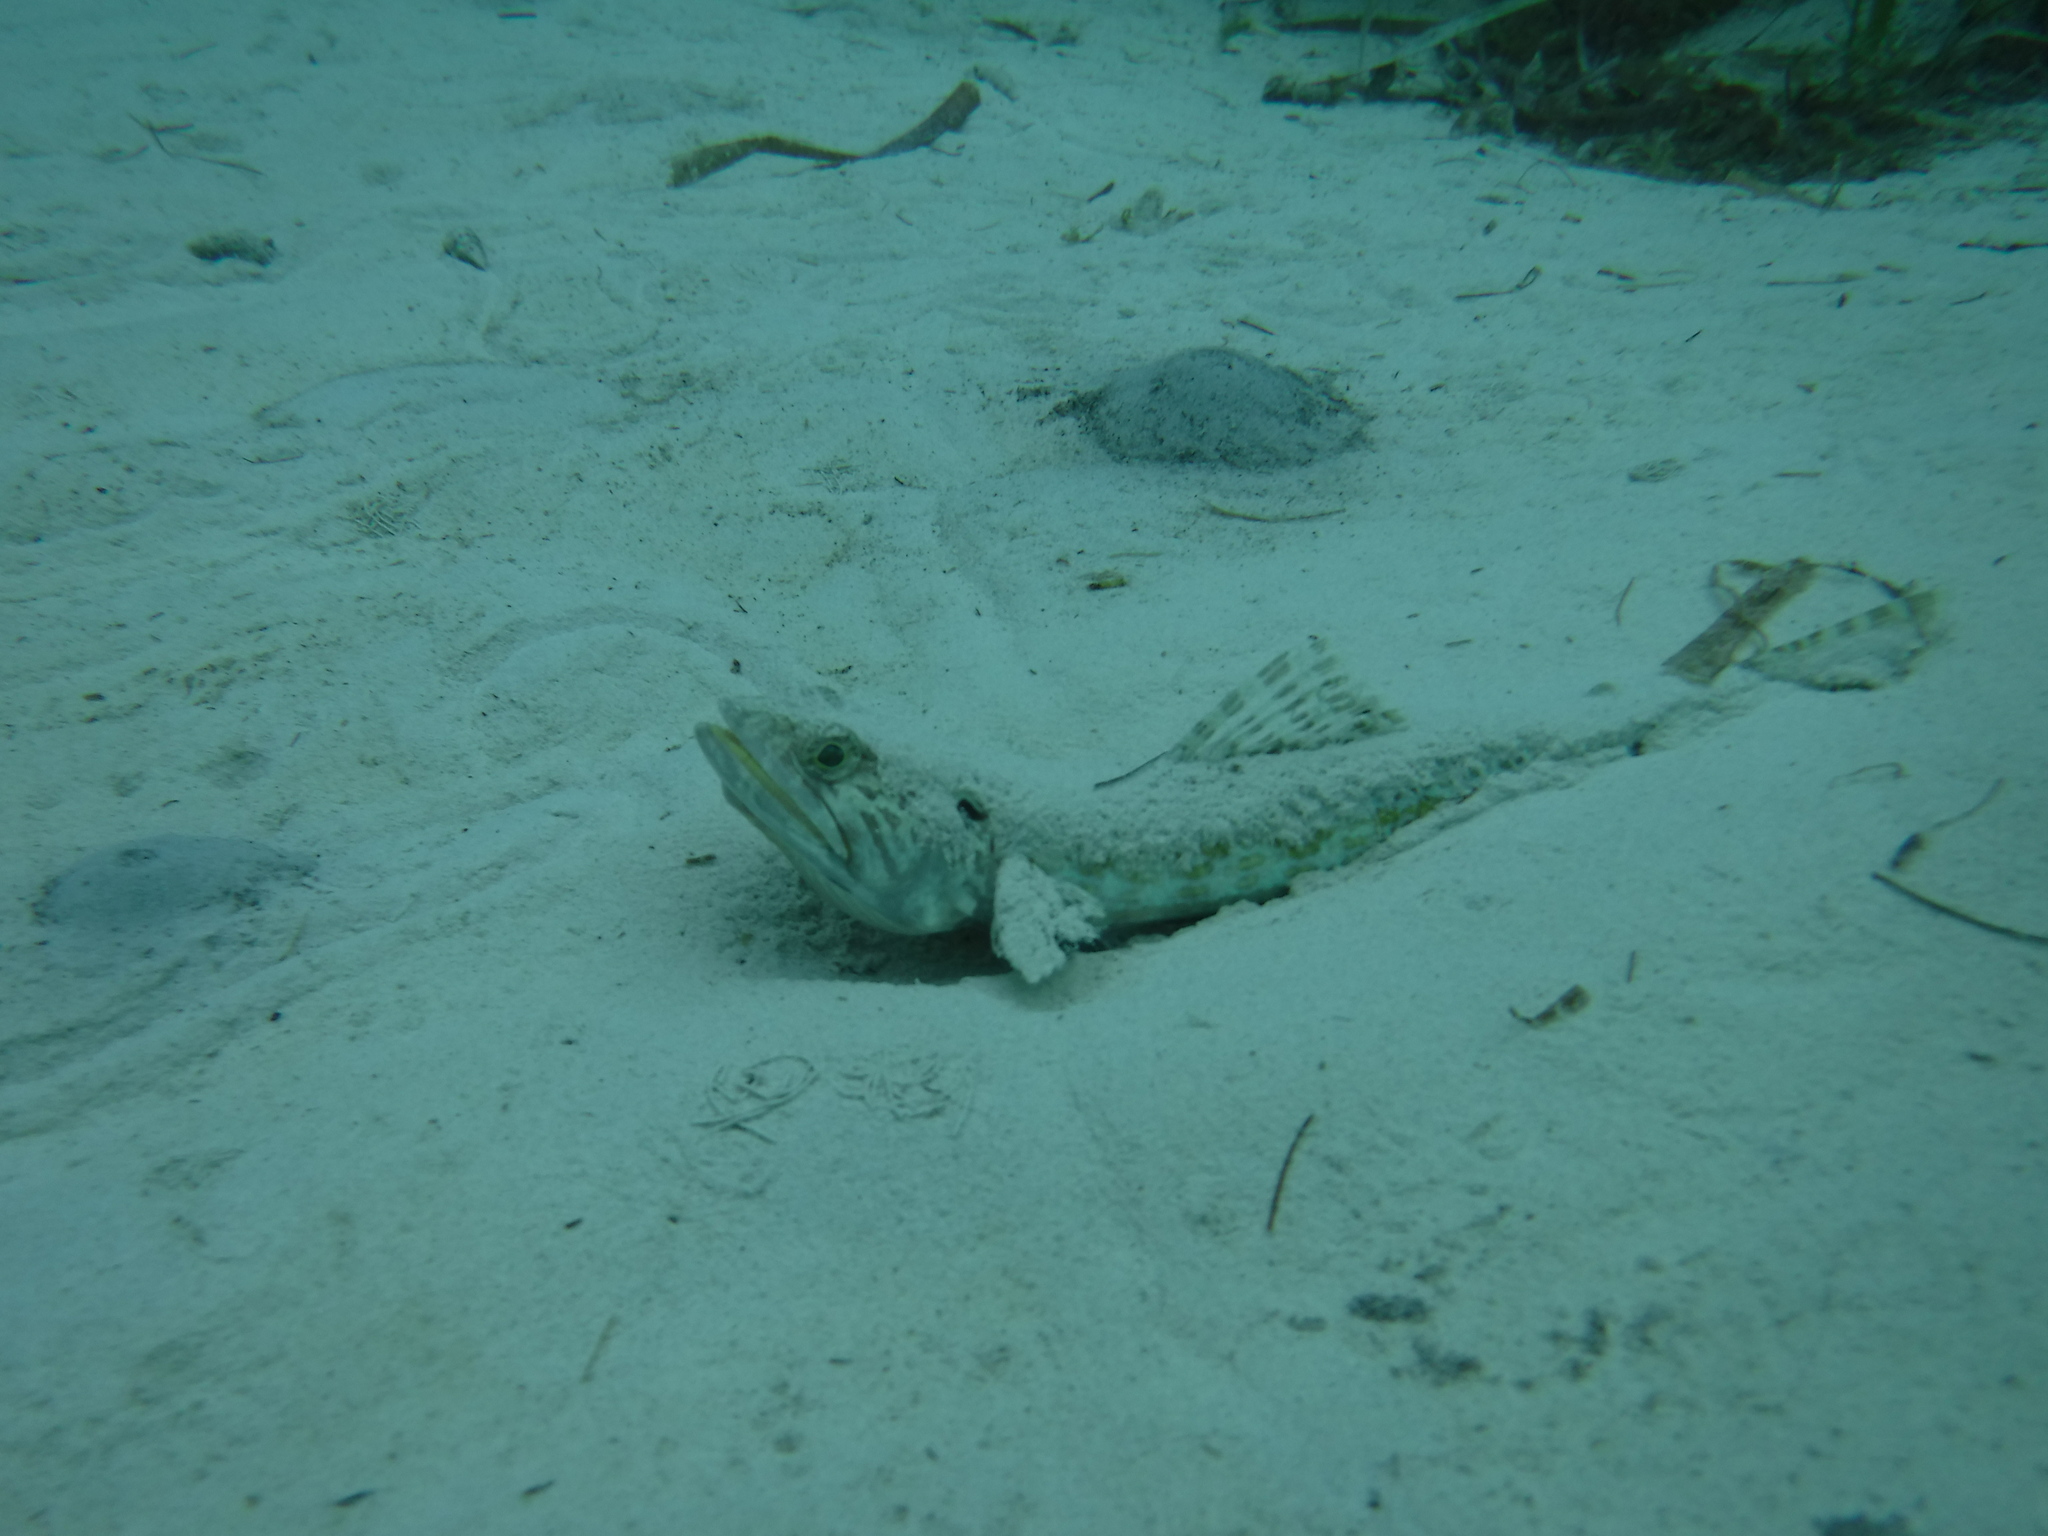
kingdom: Animalia
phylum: Chordata
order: Aulopiformes
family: Synodontidae
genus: Synodus
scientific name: Synodus intermedius
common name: Sand diver
